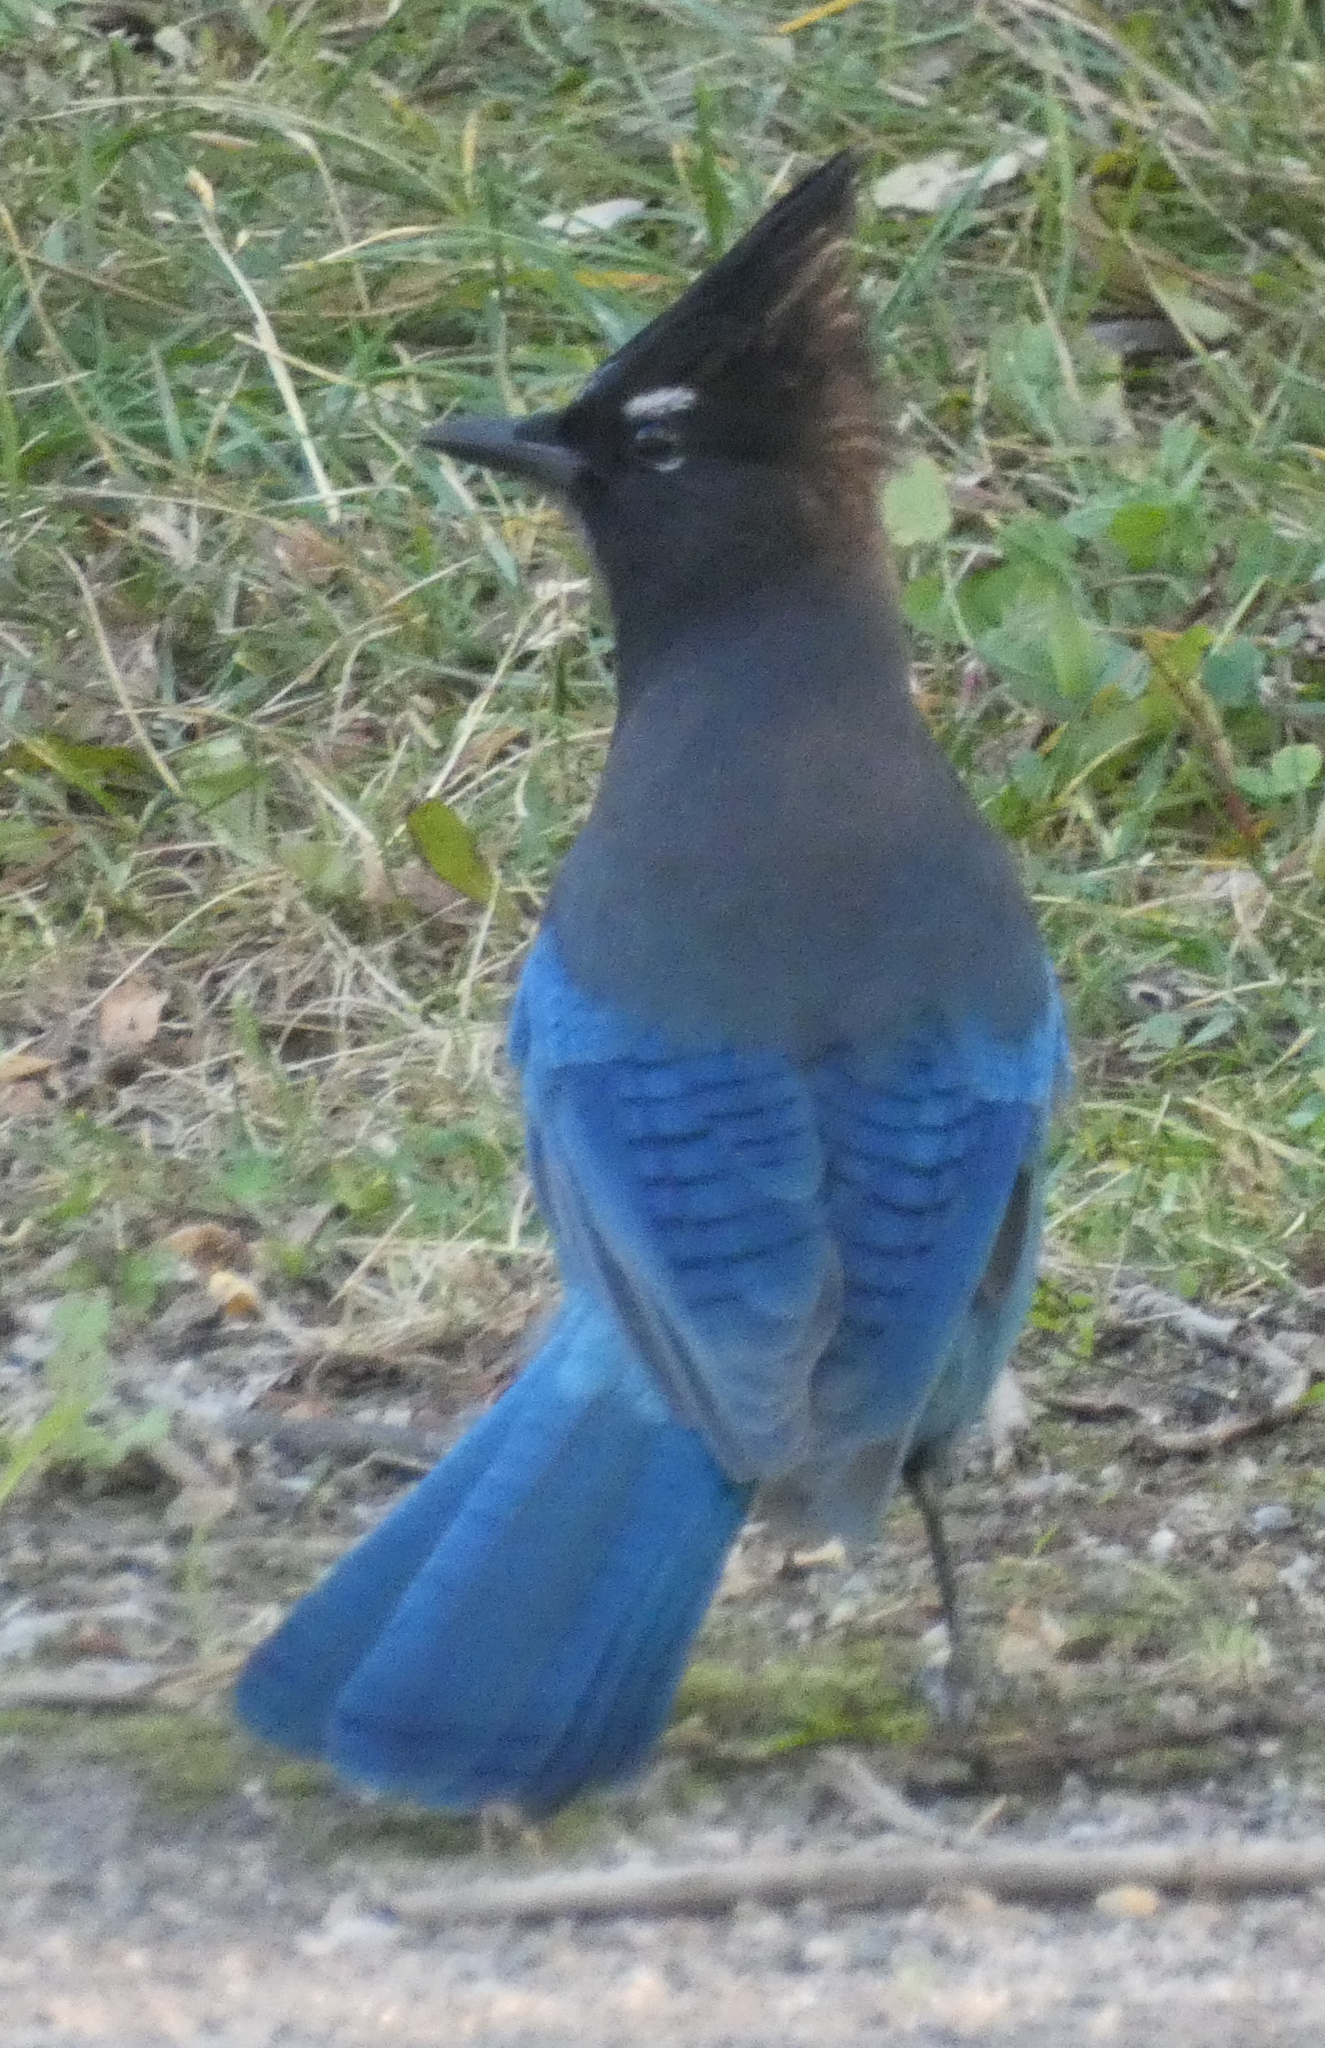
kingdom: Animalia
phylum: Chordata
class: Aves
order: Passeriformes
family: Corvidae
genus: Cyanocitta
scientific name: Cyanocitta stelleri
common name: Steller's jay
